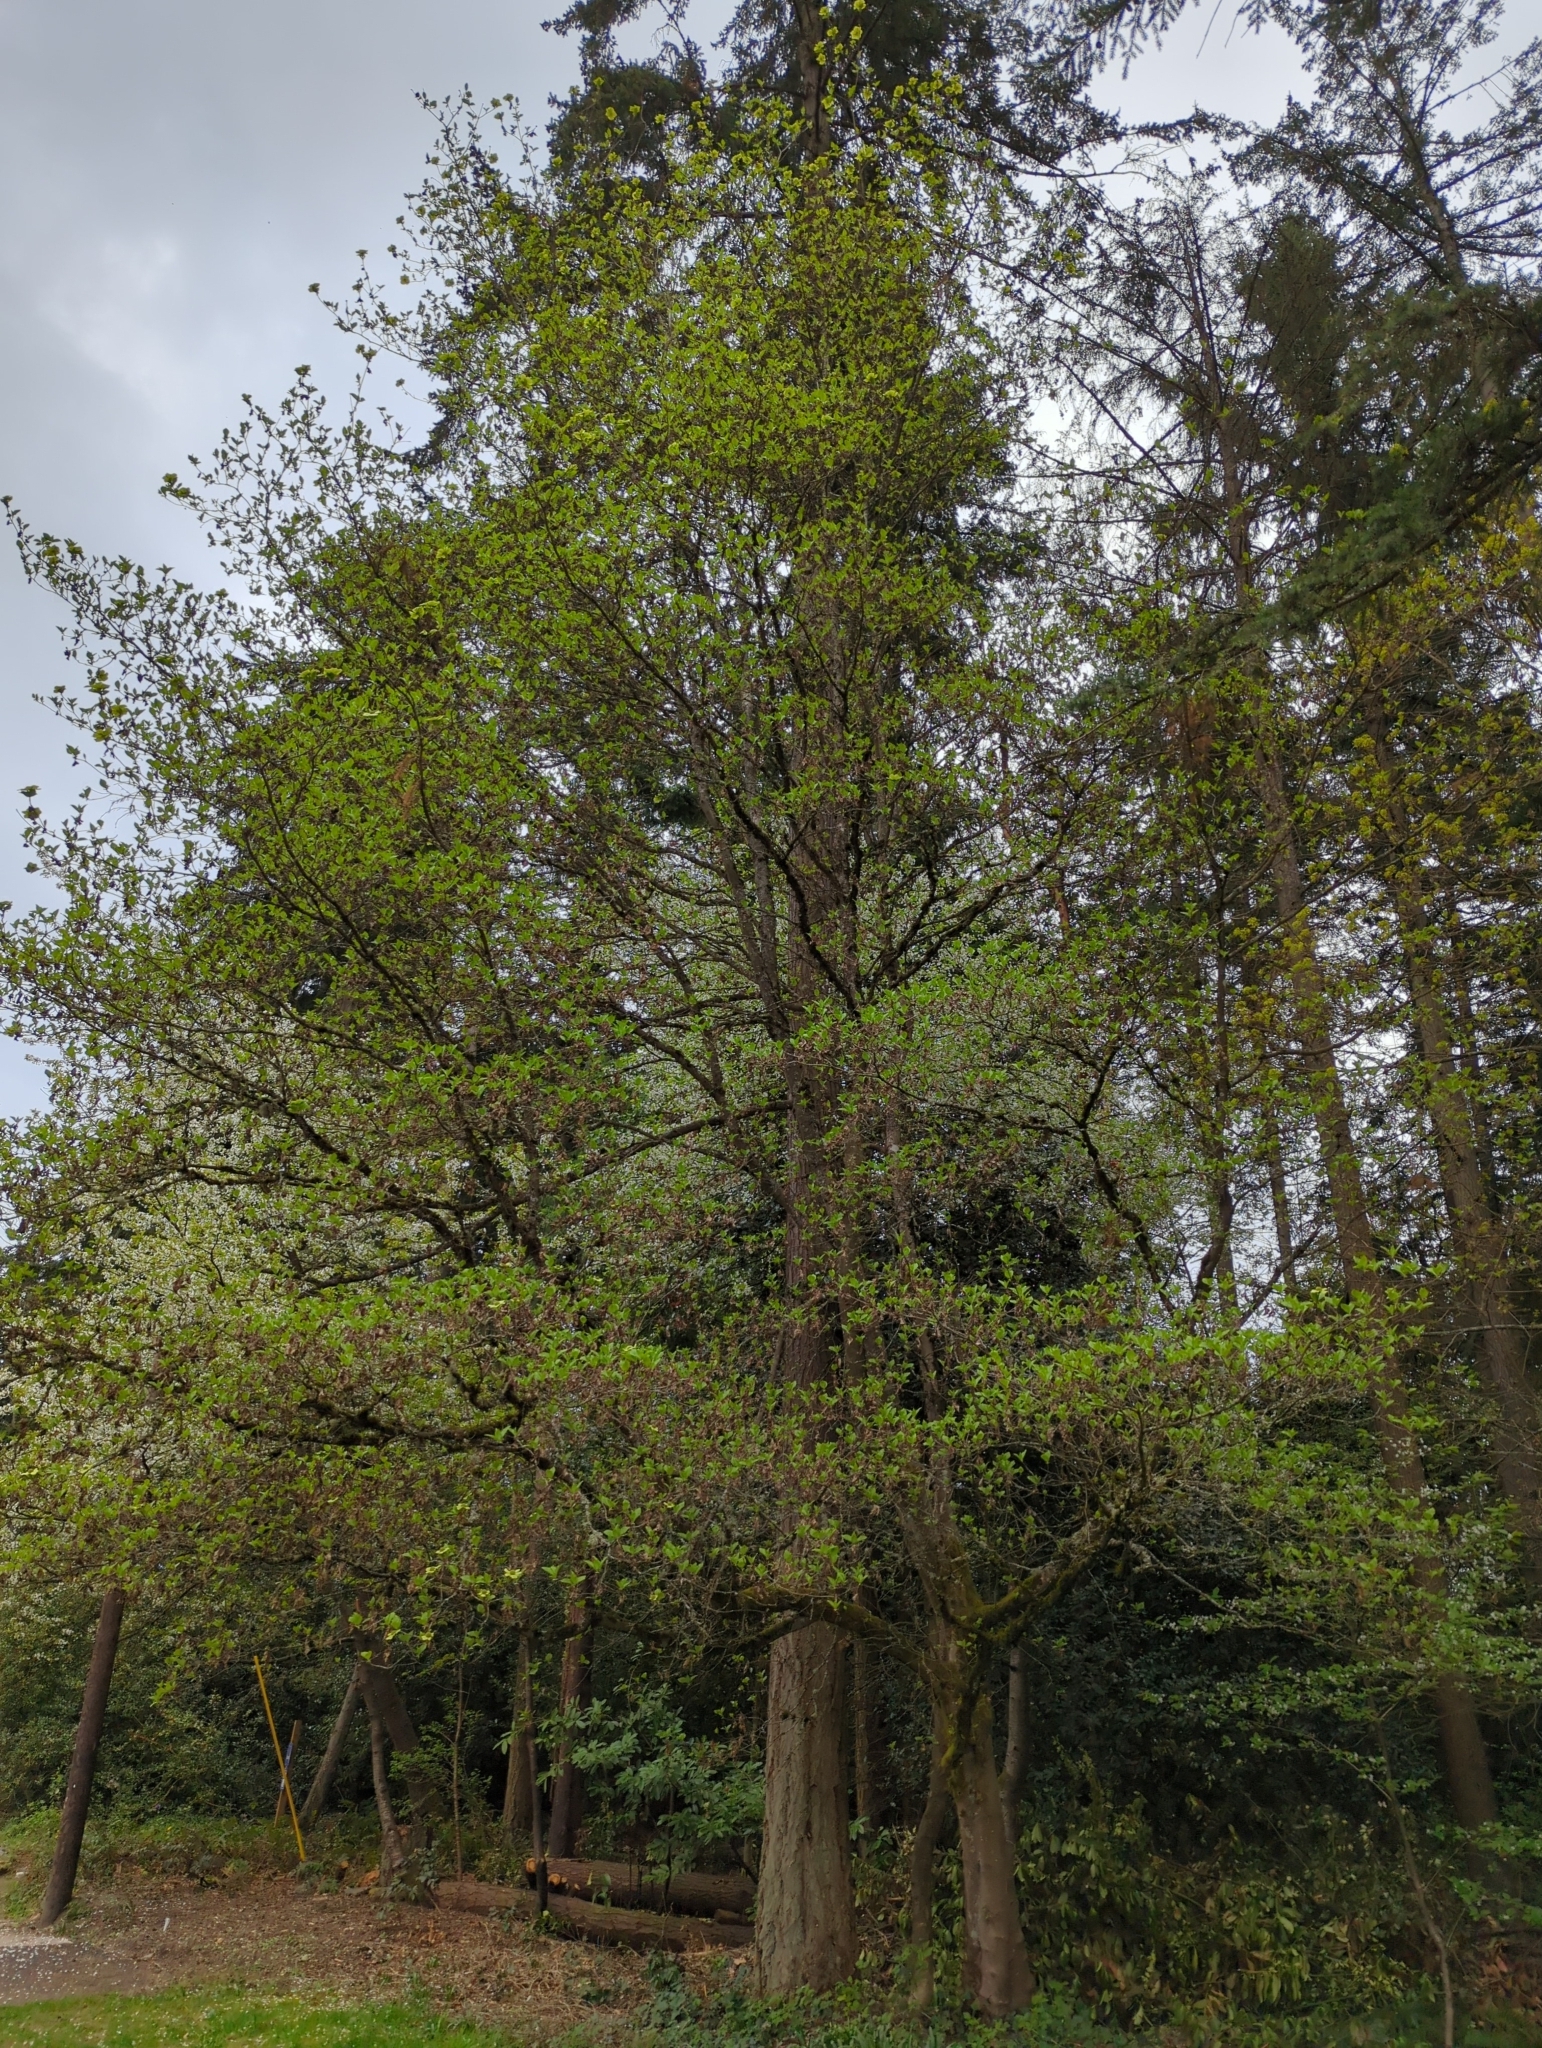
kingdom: Plantae
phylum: Tracheophyta
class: Magnoliopsida
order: Cornales
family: Cornaceae
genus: Cornus
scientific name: Cornus nuttallii
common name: Pacific dogwood
